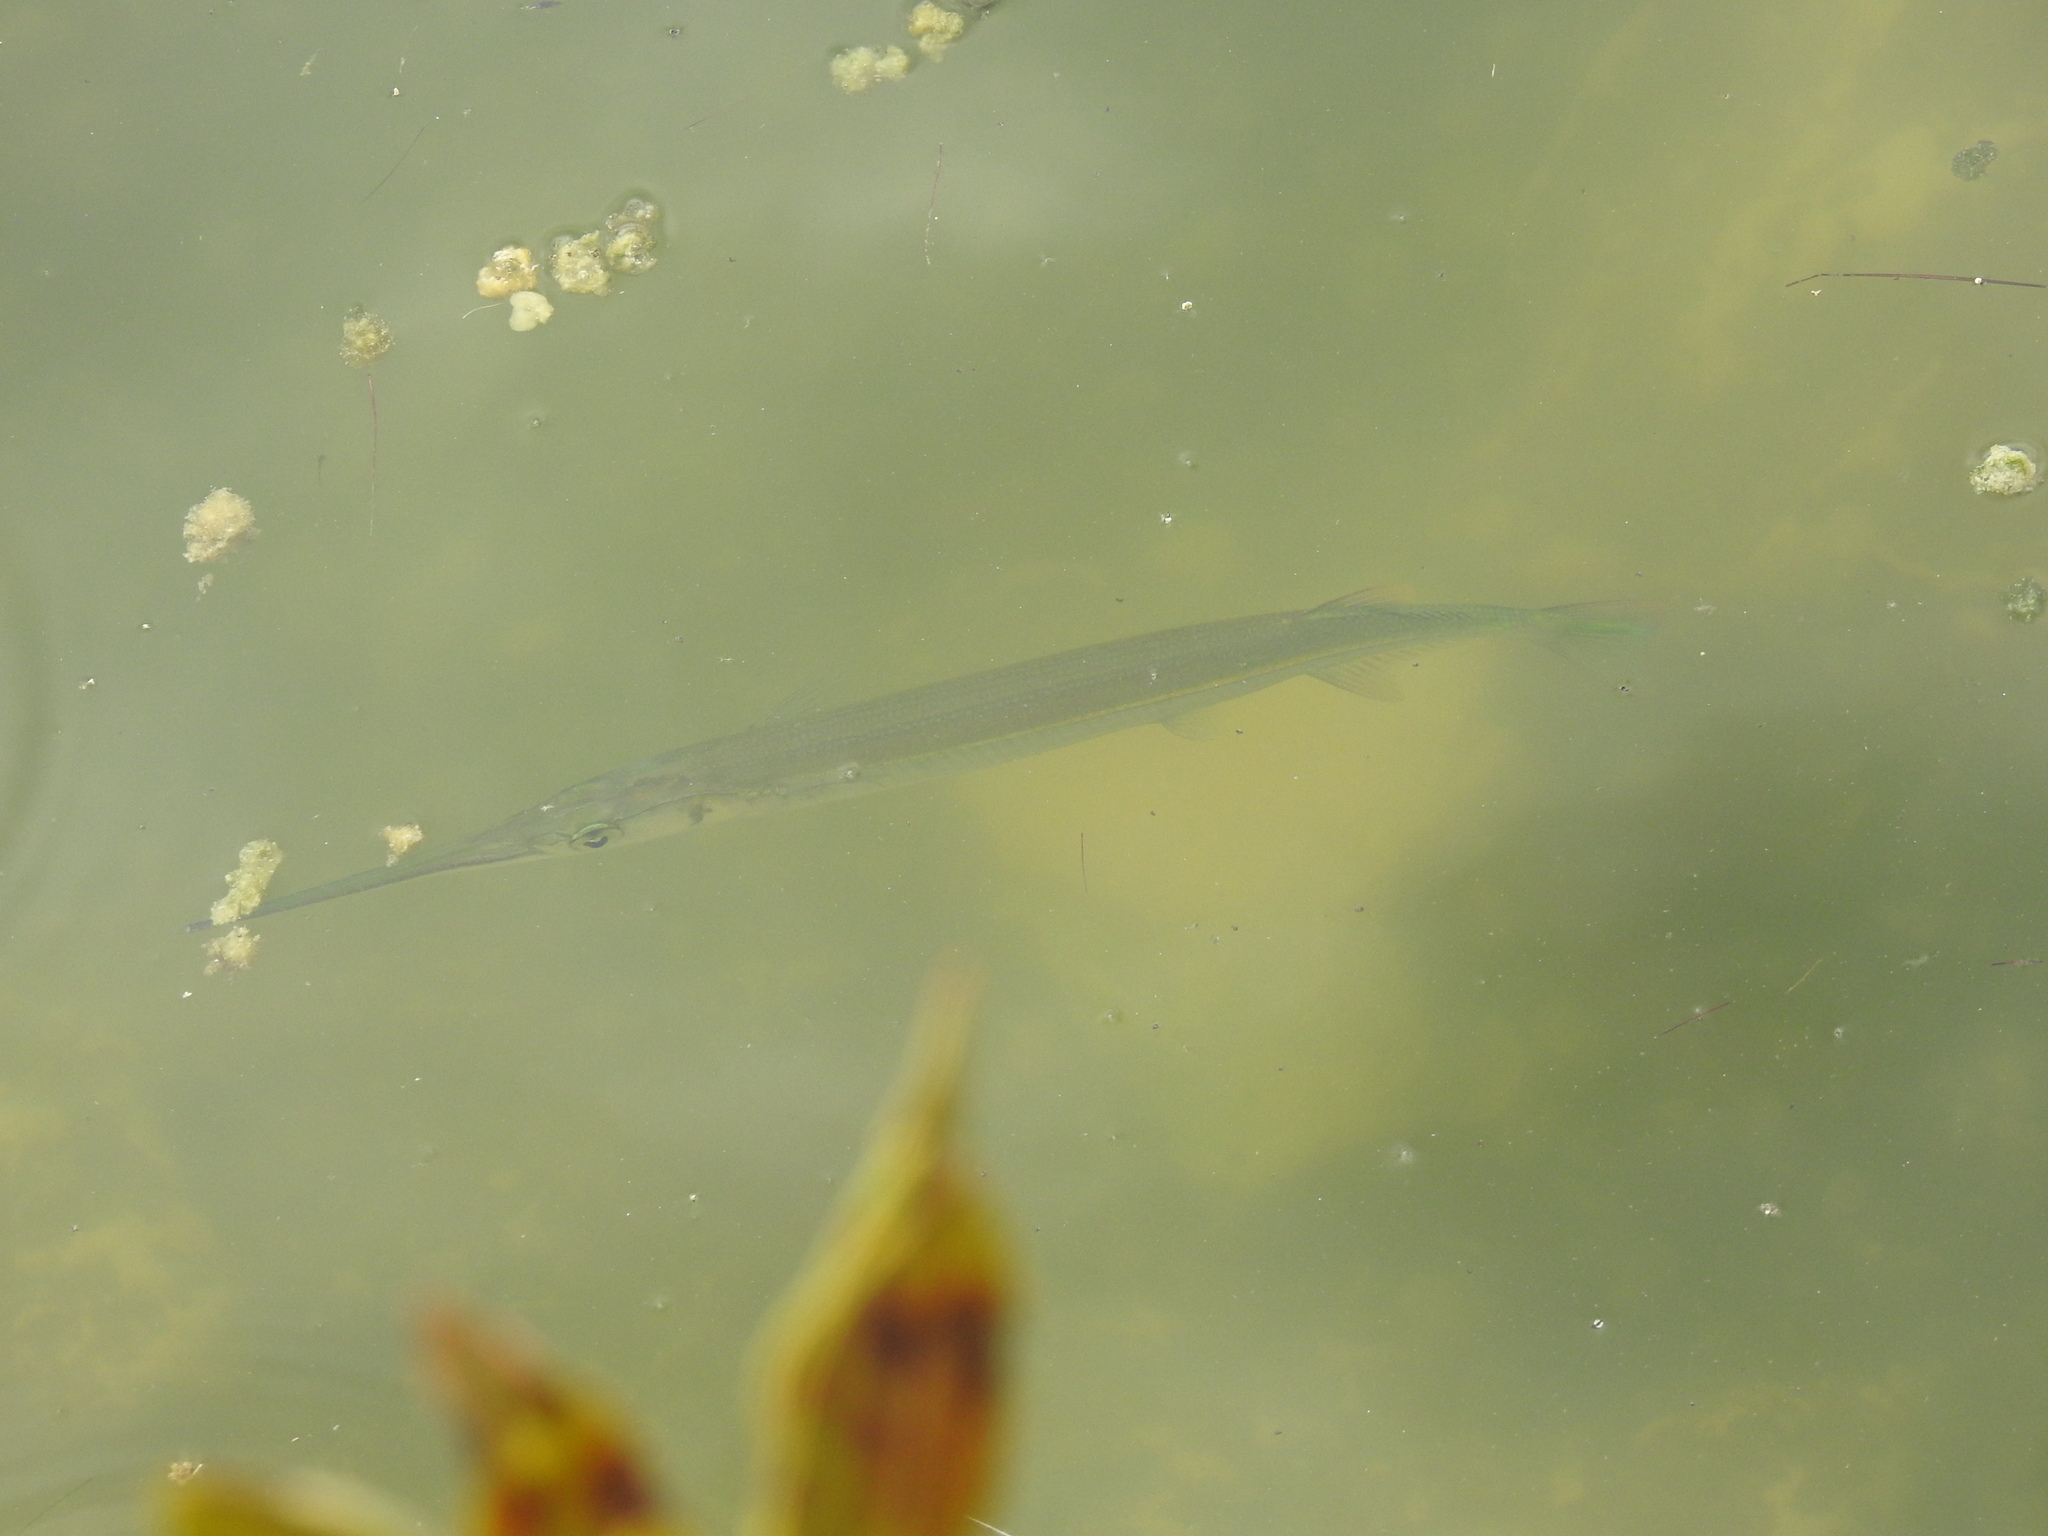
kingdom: Animalia
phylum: Chordata
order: Beloniformes
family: Belonidae
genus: Strongylura
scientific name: Strongylura notata
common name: Redfin needlefish
